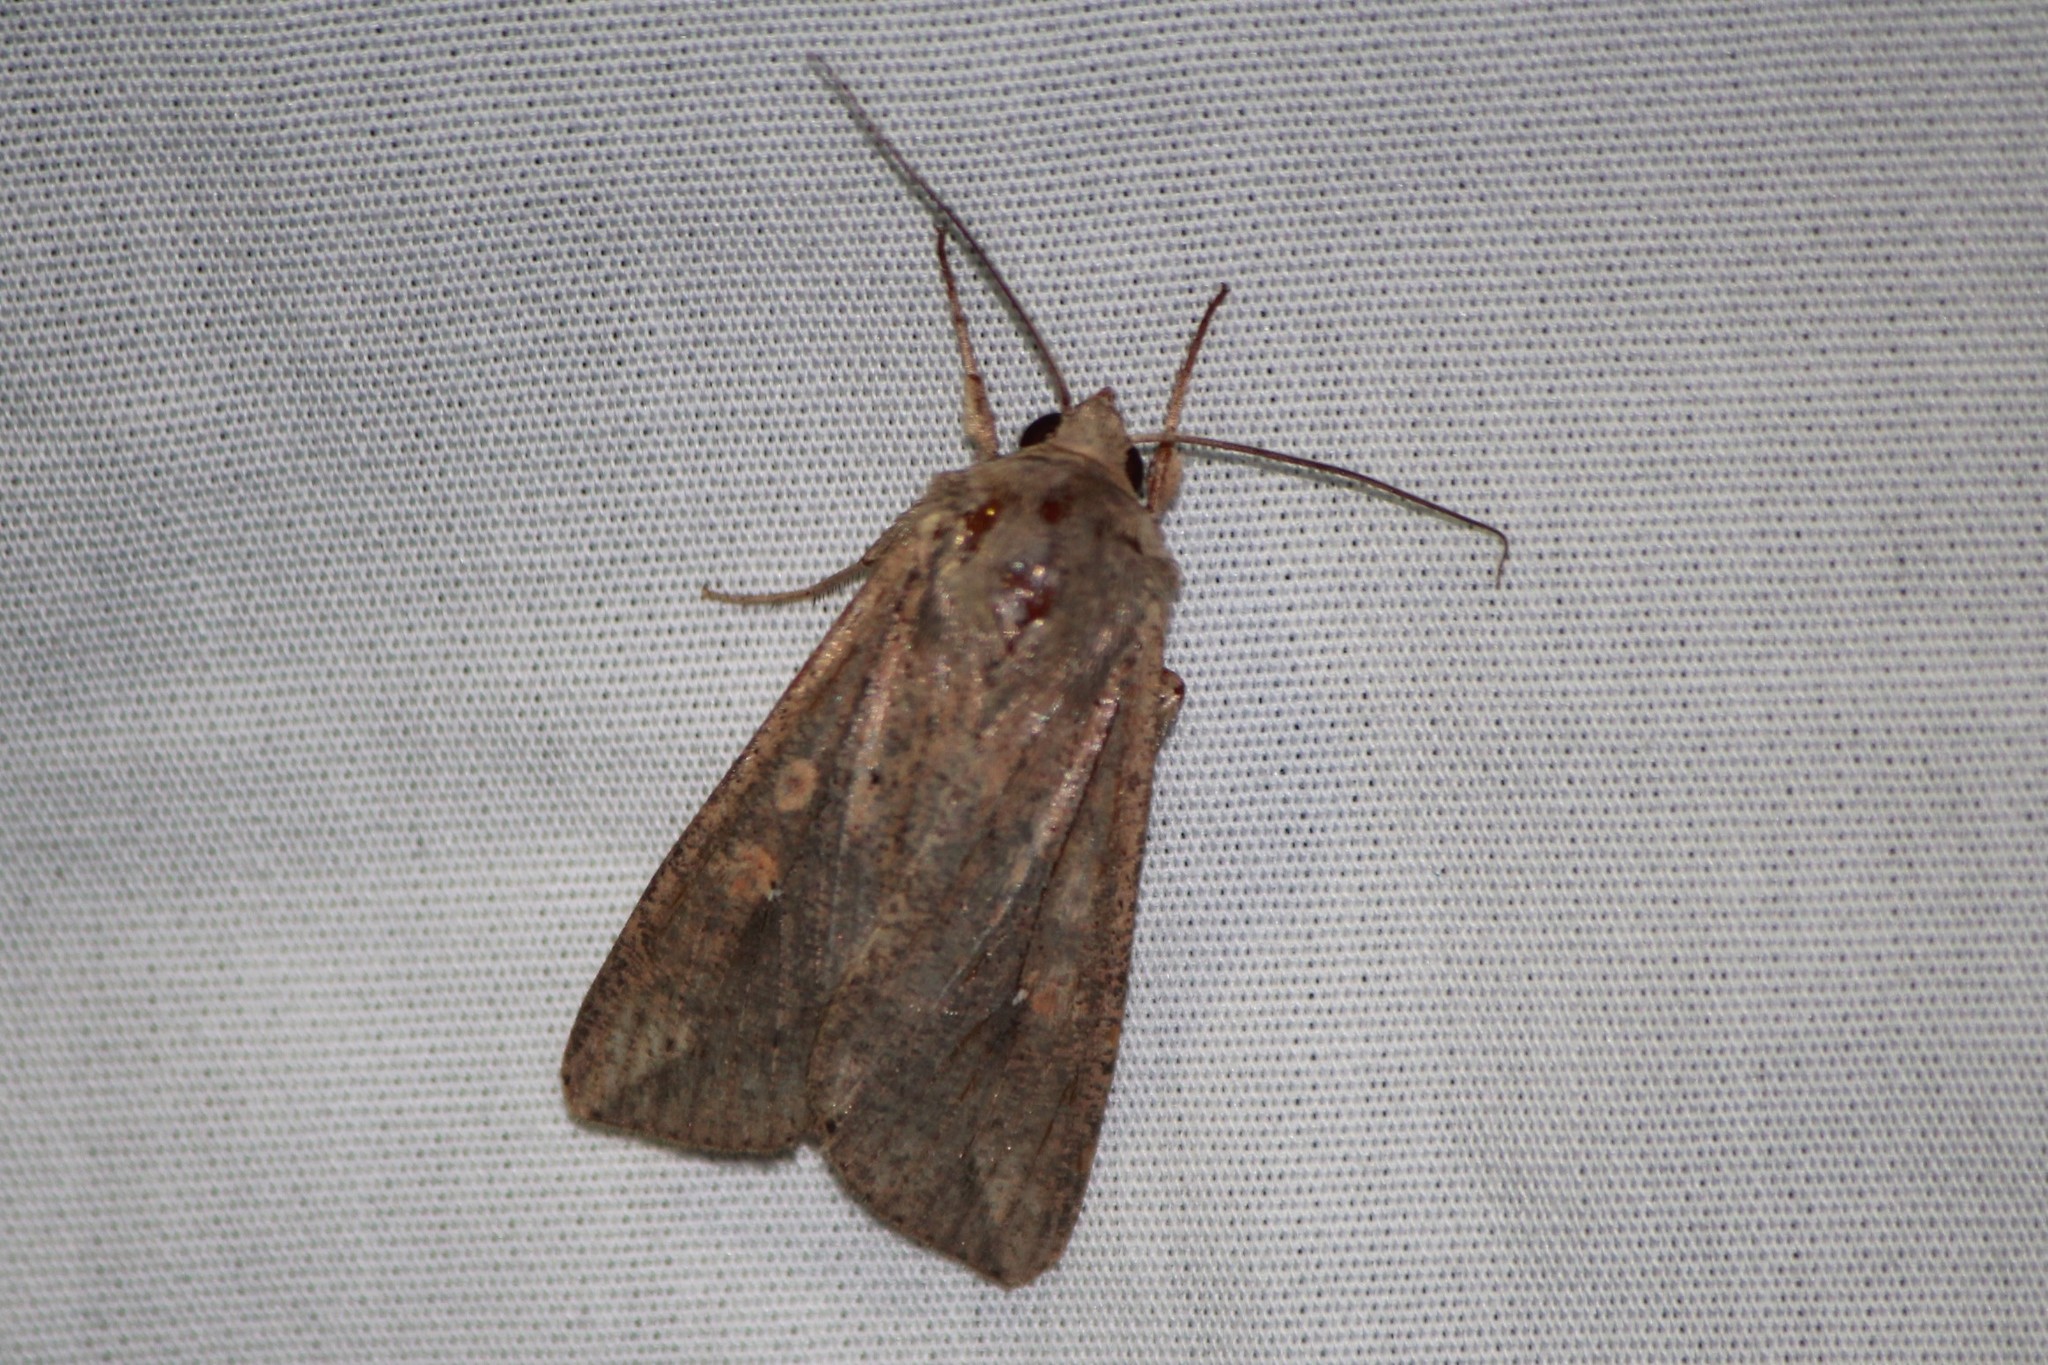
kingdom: Animalia
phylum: Arthropoda
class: Insecta
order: Lepidoptera
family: Noctuidae
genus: Mythimna
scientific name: Mythimna unipuncta
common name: White-speck
